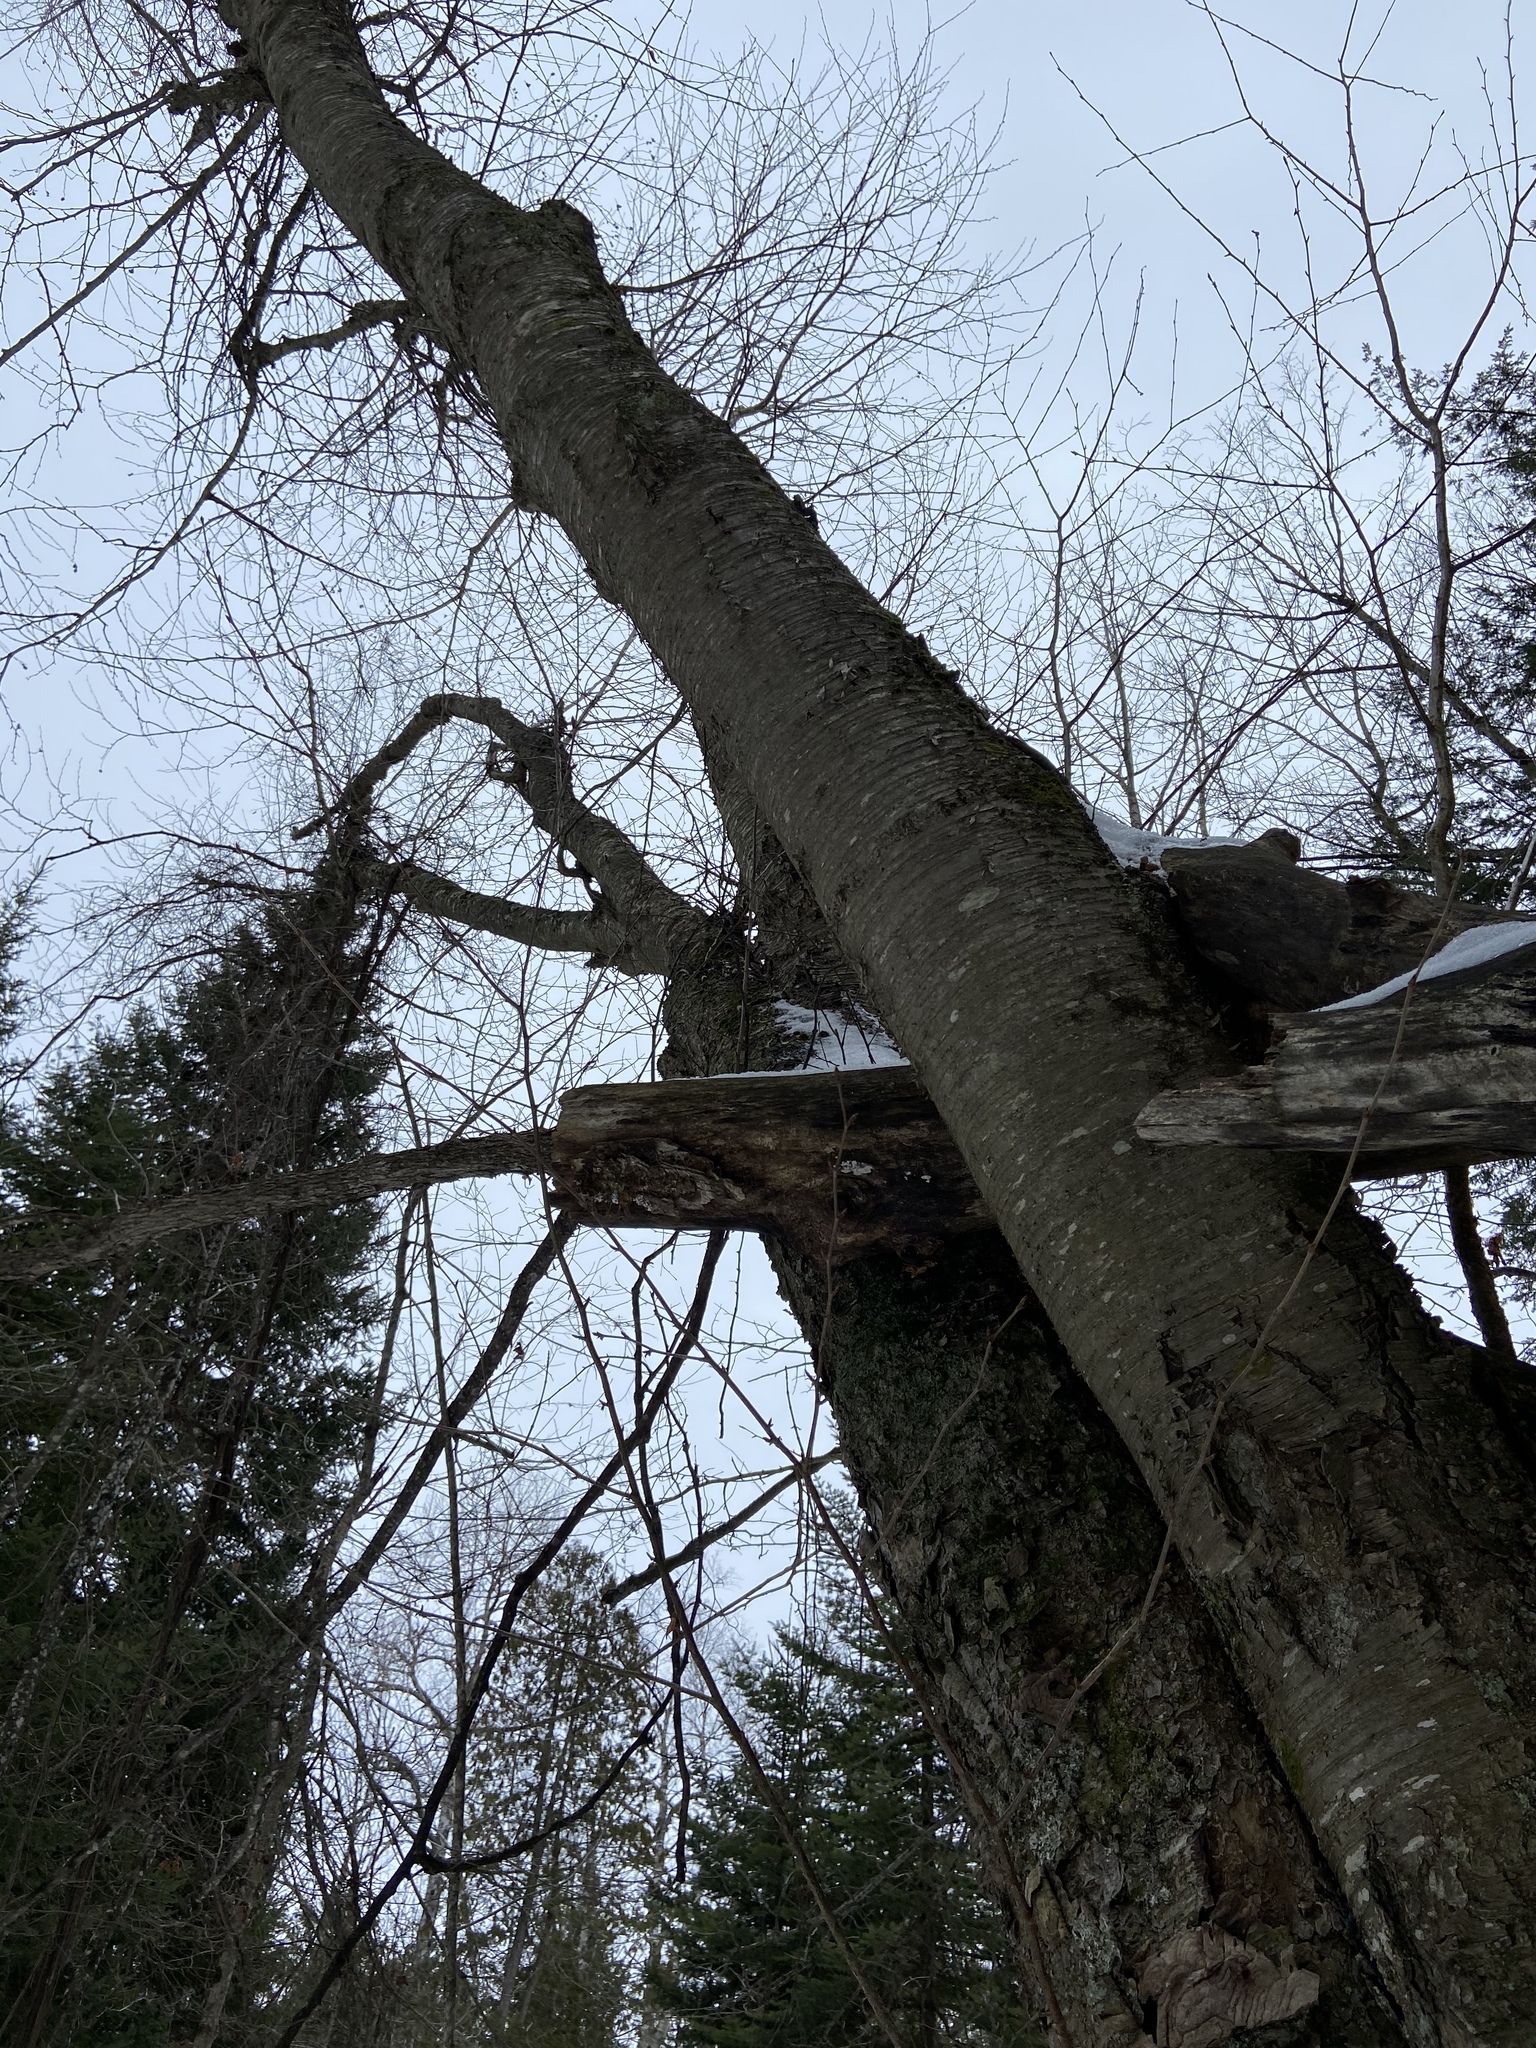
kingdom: Plantae
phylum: Tracheophyta
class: Magnoliopsida
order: Fagales
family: Betulaceae
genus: Betula
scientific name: Betula alleghaniensis
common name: Yellow birch
